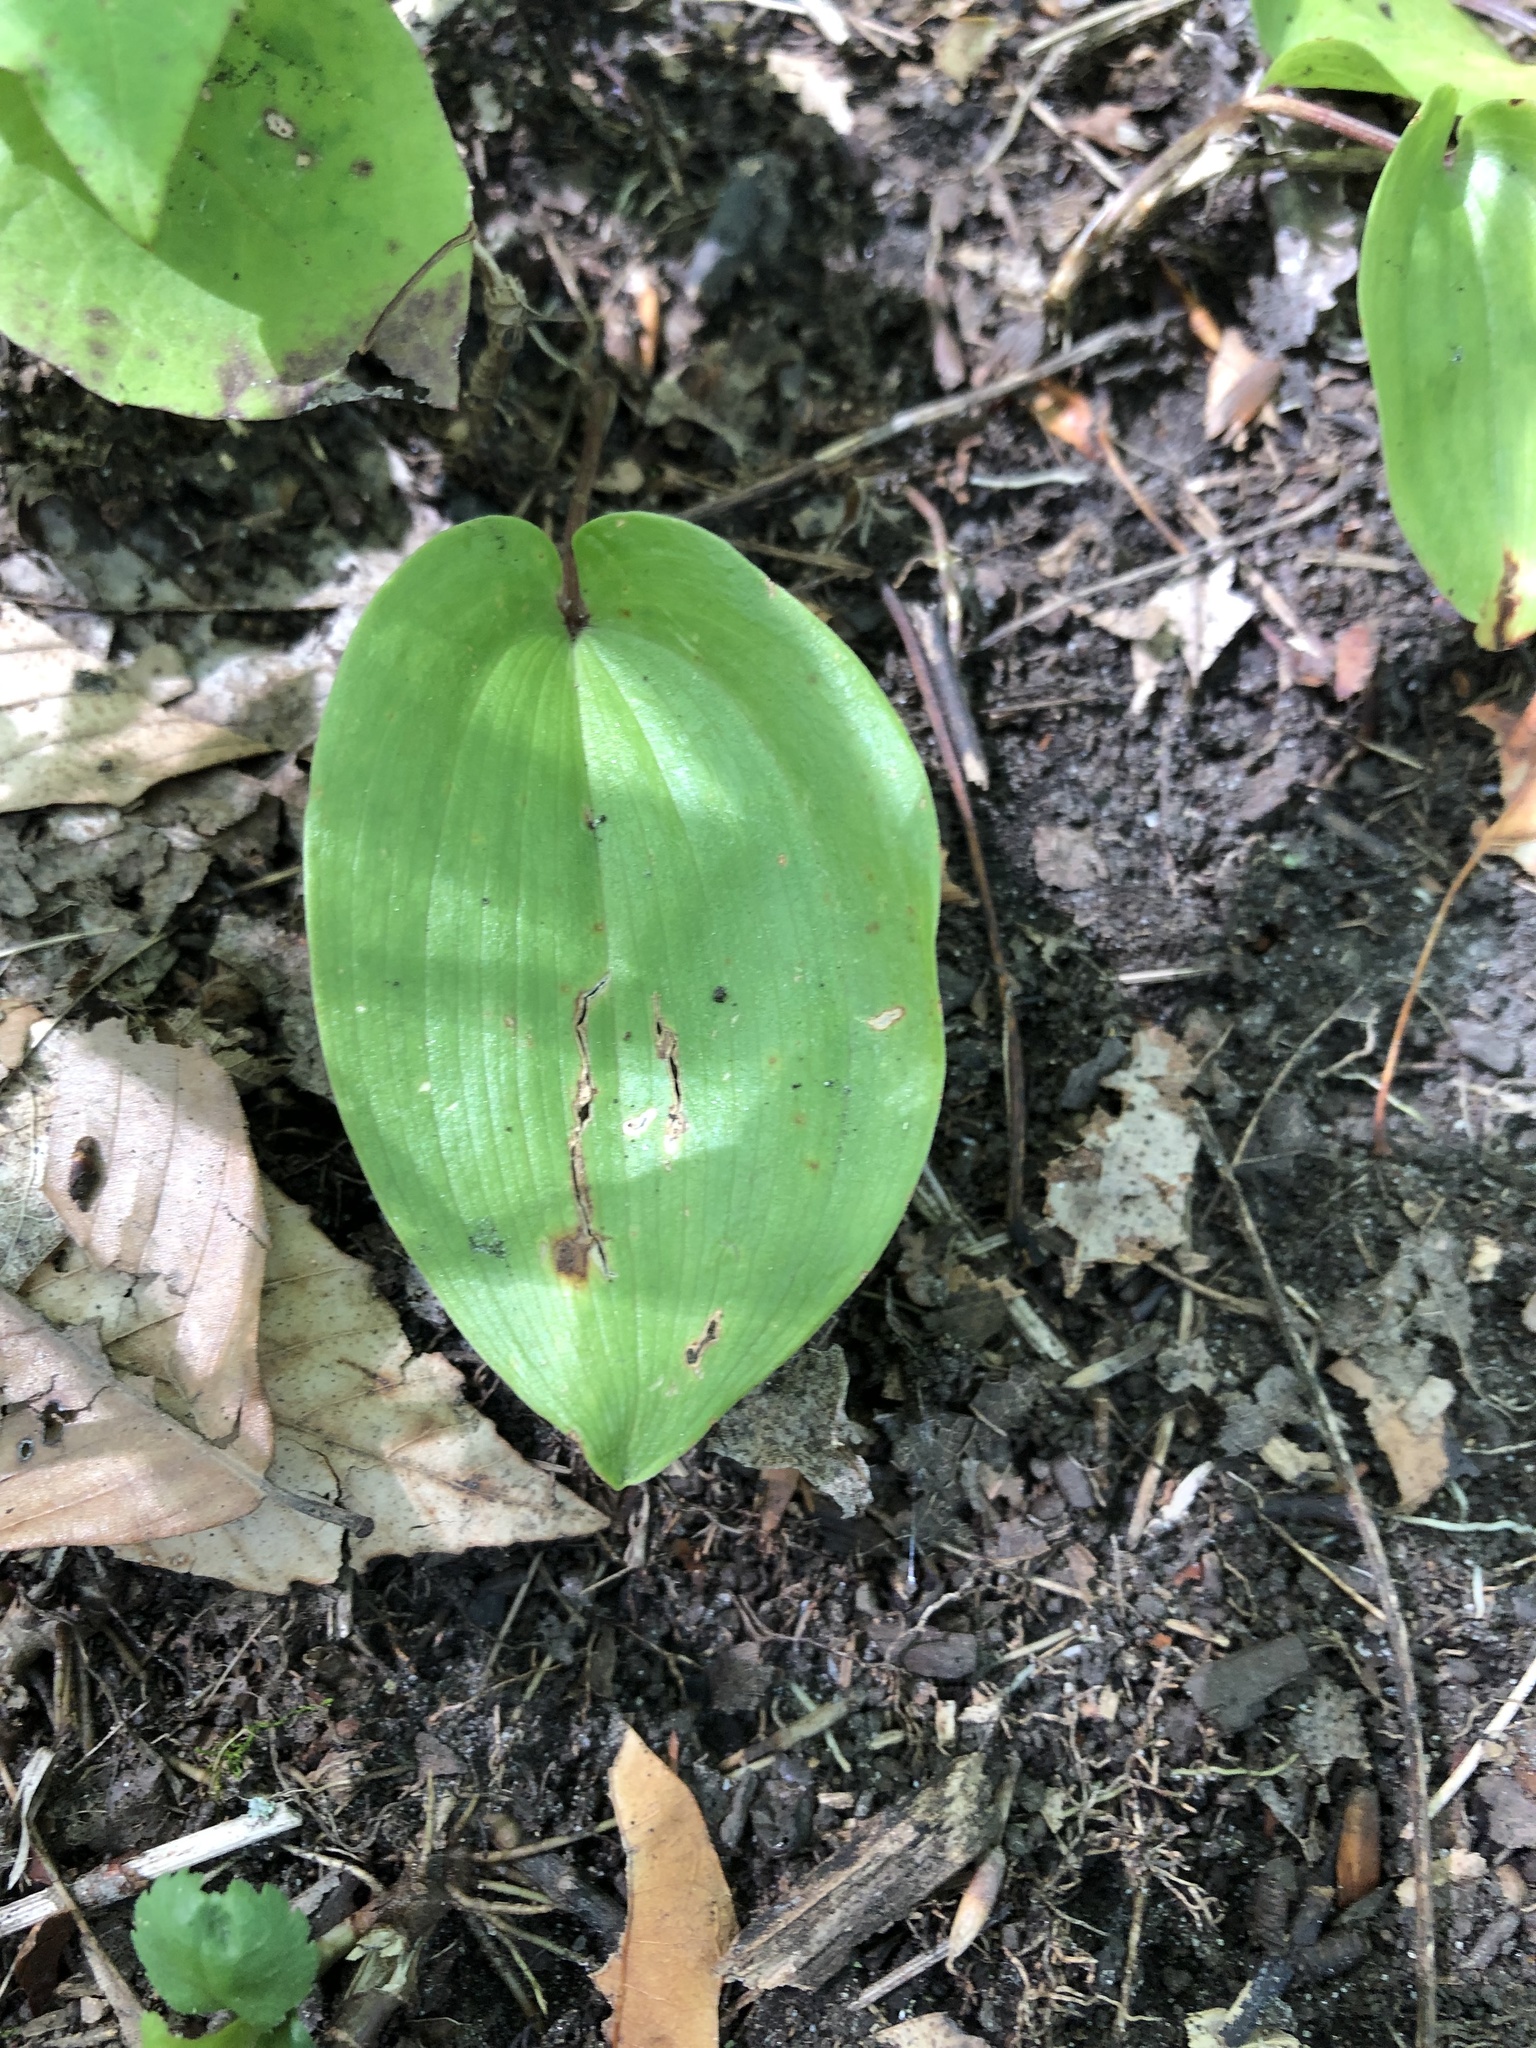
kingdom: Plantae
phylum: Tracheophyta
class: Liliopsida
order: Asparagales
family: Asparagaceae
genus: Maianthemum
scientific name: Maianthemum canadense
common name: False lily-of-the-valley
